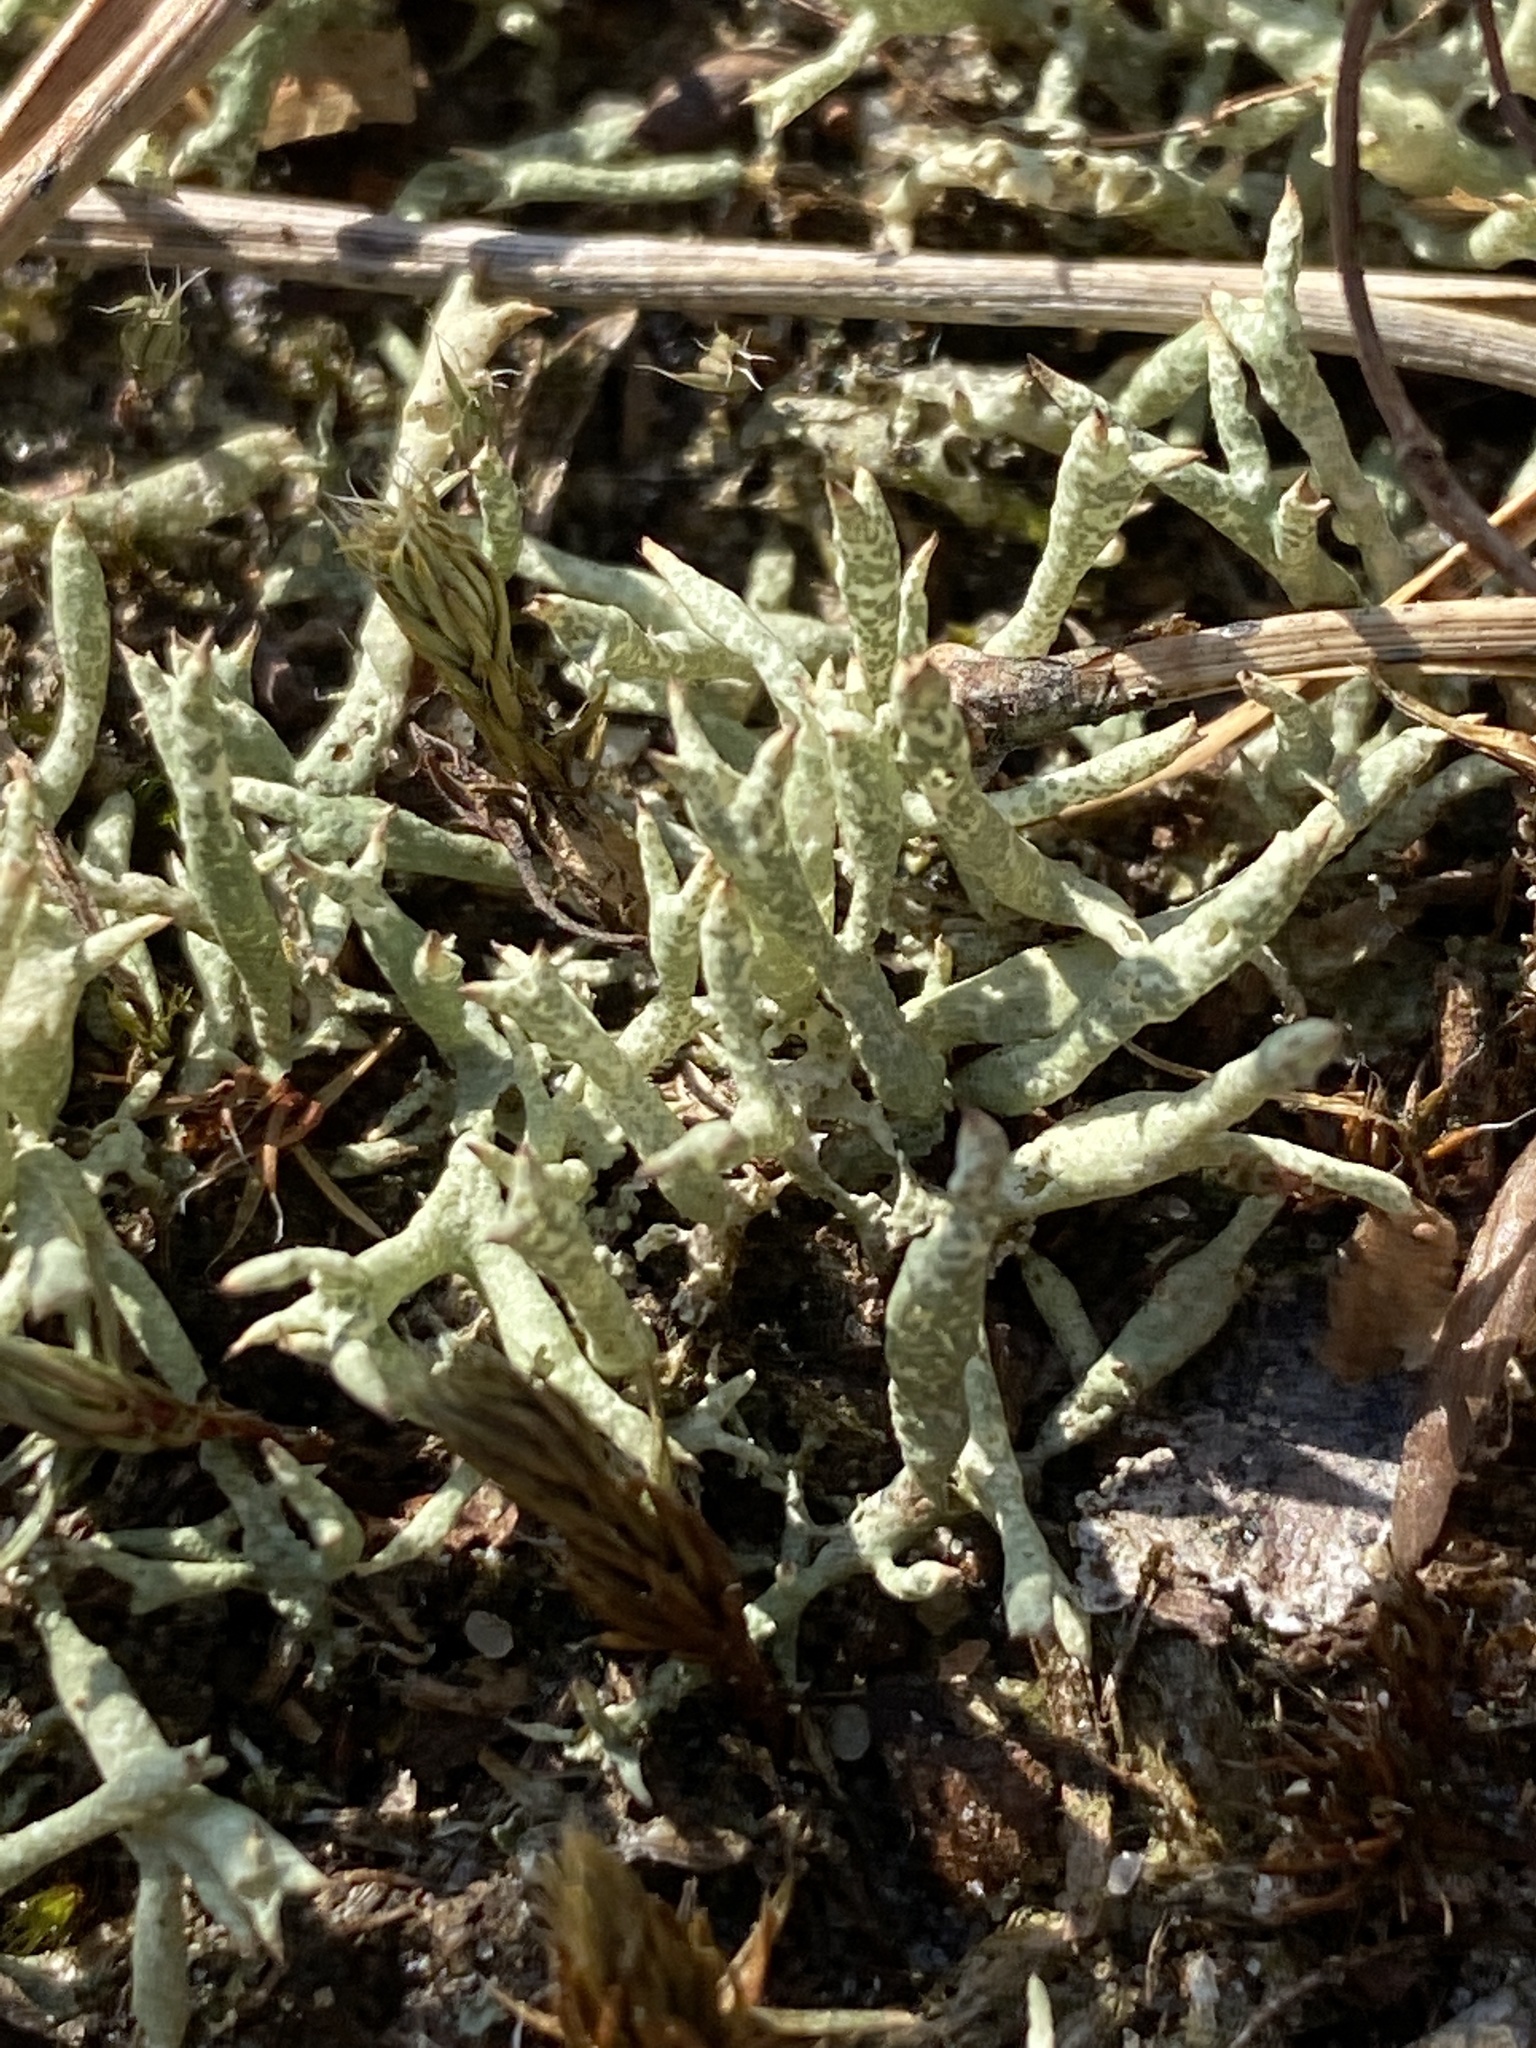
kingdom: Fungi
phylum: Ascomycota
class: Lecanoromycetes
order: Lecanorales
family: Cladoniaceae
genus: Cladonia
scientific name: Cladonia uncialis
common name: Thorn lichen
